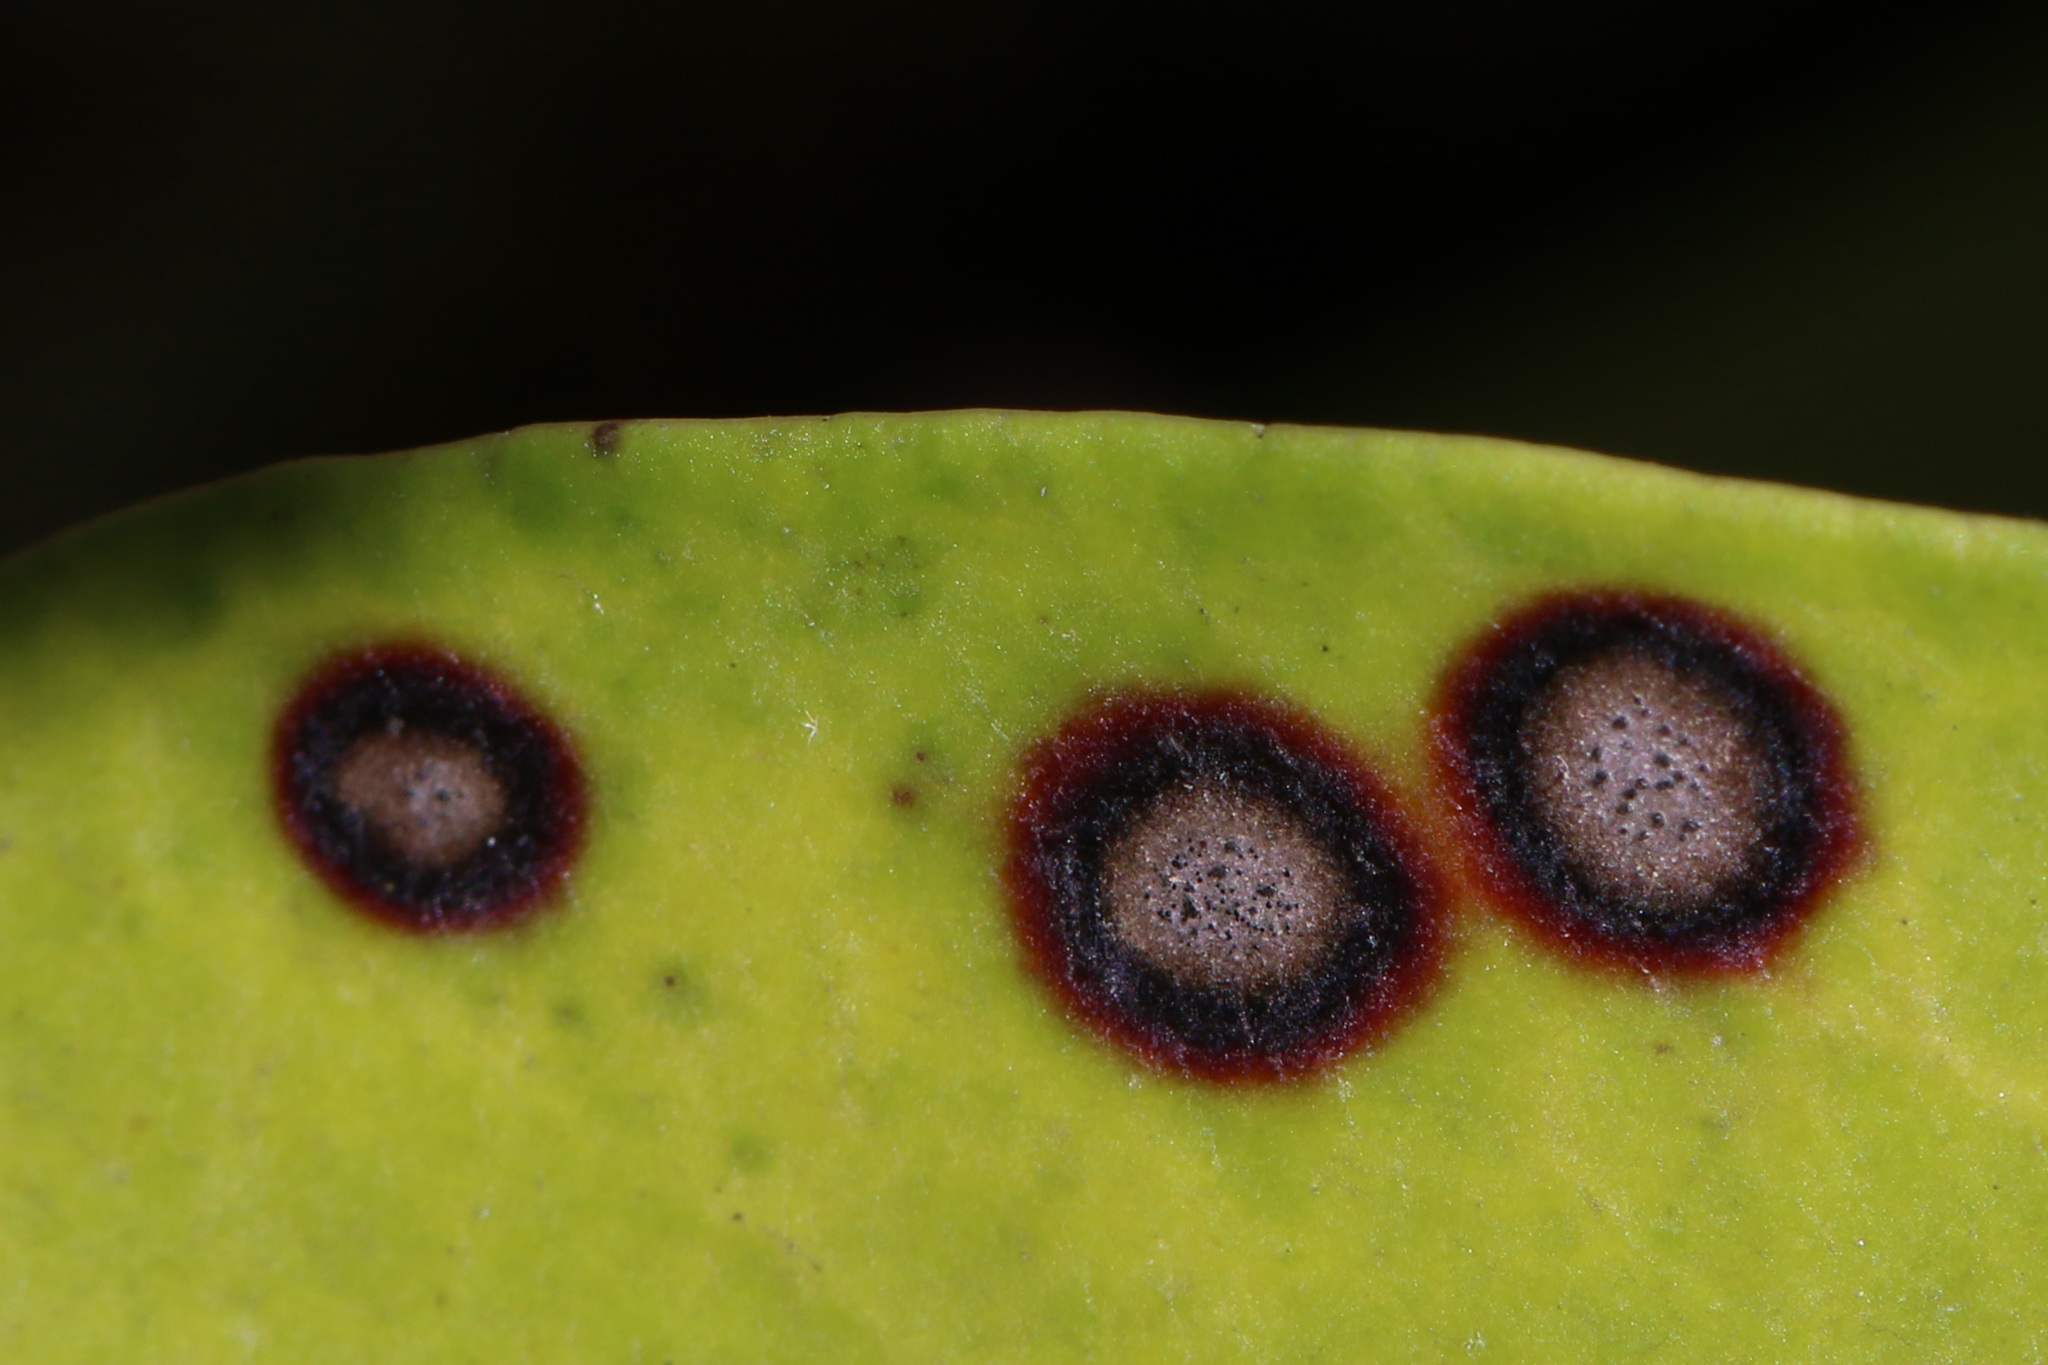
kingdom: Fungi
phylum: Ascomycota
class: Dothideomycetes
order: Mycosphaerellales
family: Mycosphaerellaceae
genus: Mycosphaerella
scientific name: Mycosphaerella colorata
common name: Mountain laurel leaf spot
